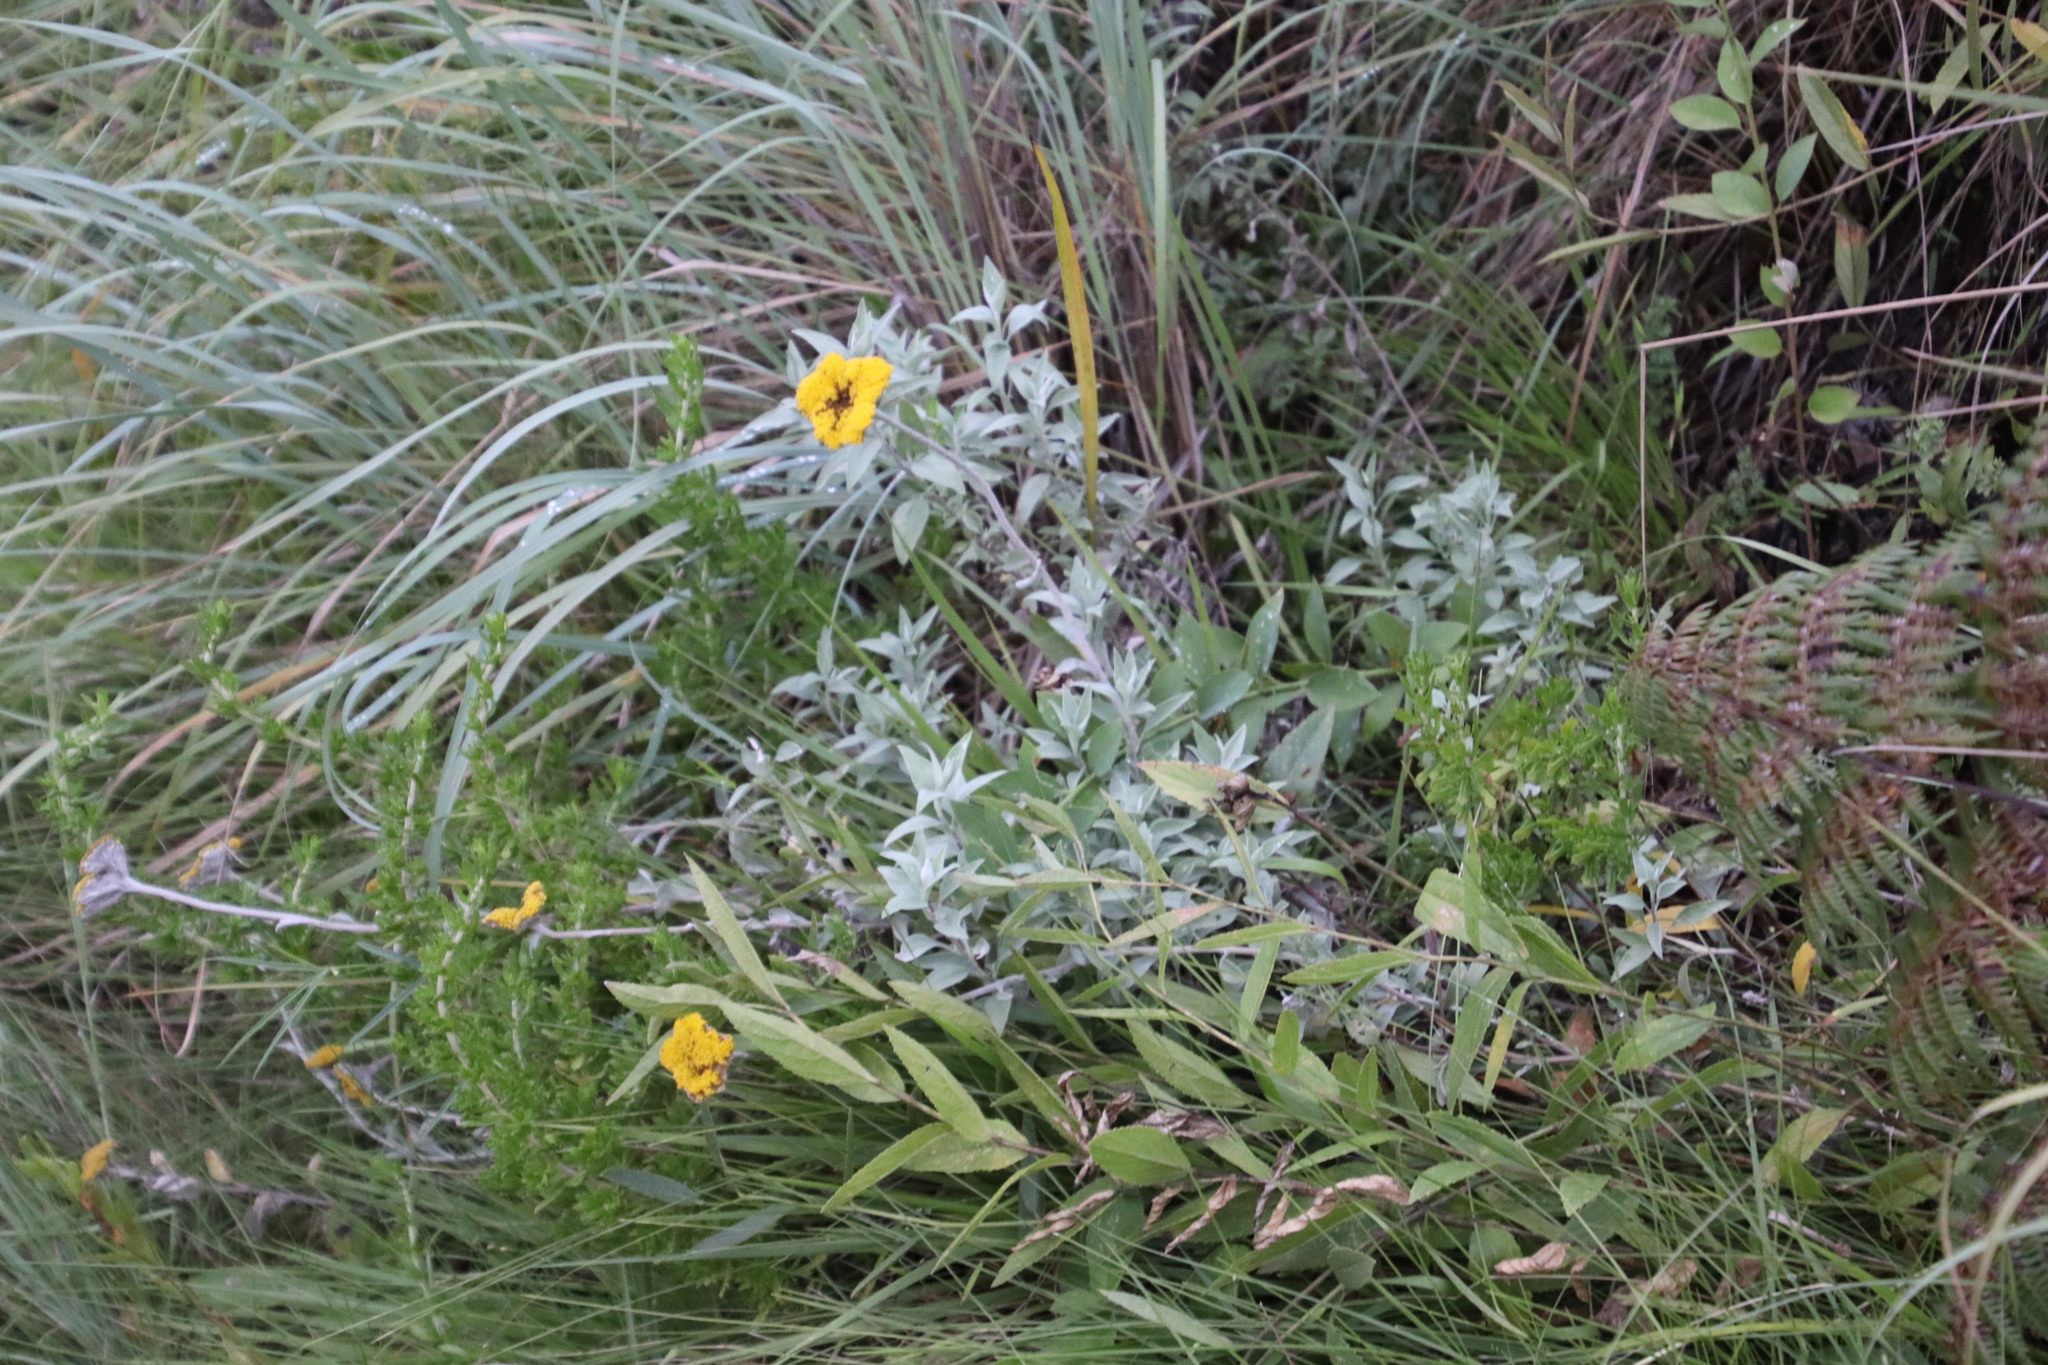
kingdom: Plantae
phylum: Tracheophyta
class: Magnoliopsida
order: Asterales
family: Asteraceae
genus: Helichrysum
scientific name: Helichrysum umbraculigerum
